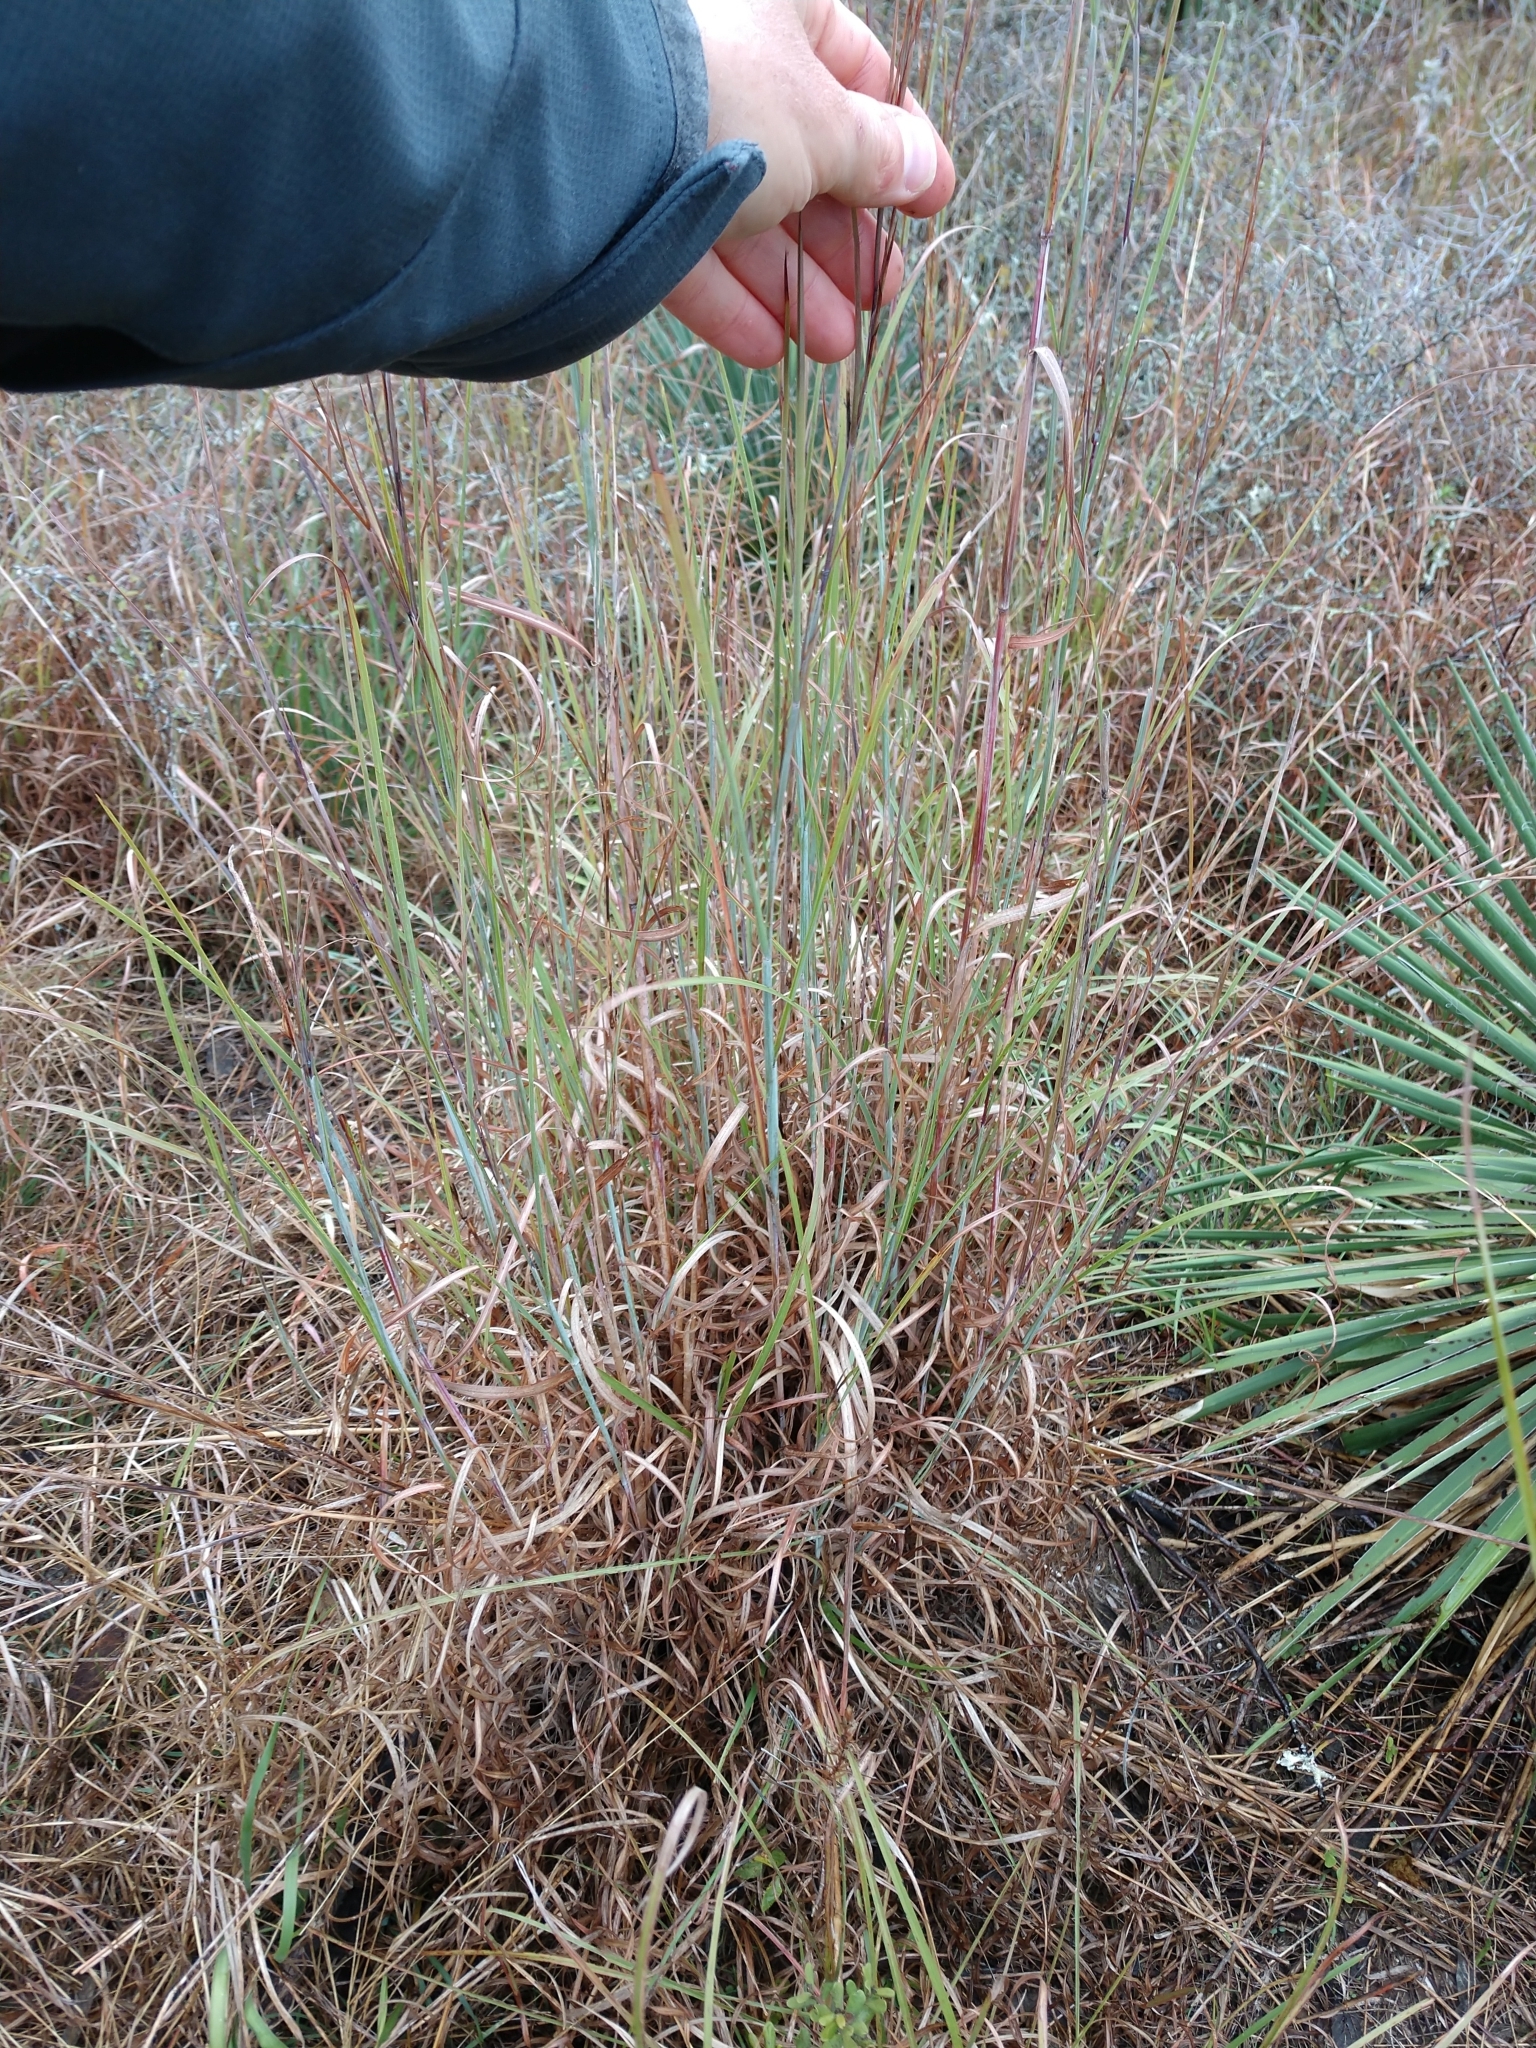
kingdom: Plantae
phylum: Tracheophyta
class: Liliopsida
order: Poales
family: Poaceae
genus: Schizachyrium
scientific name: Schizachyrium scoparium
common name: Little bluestem
